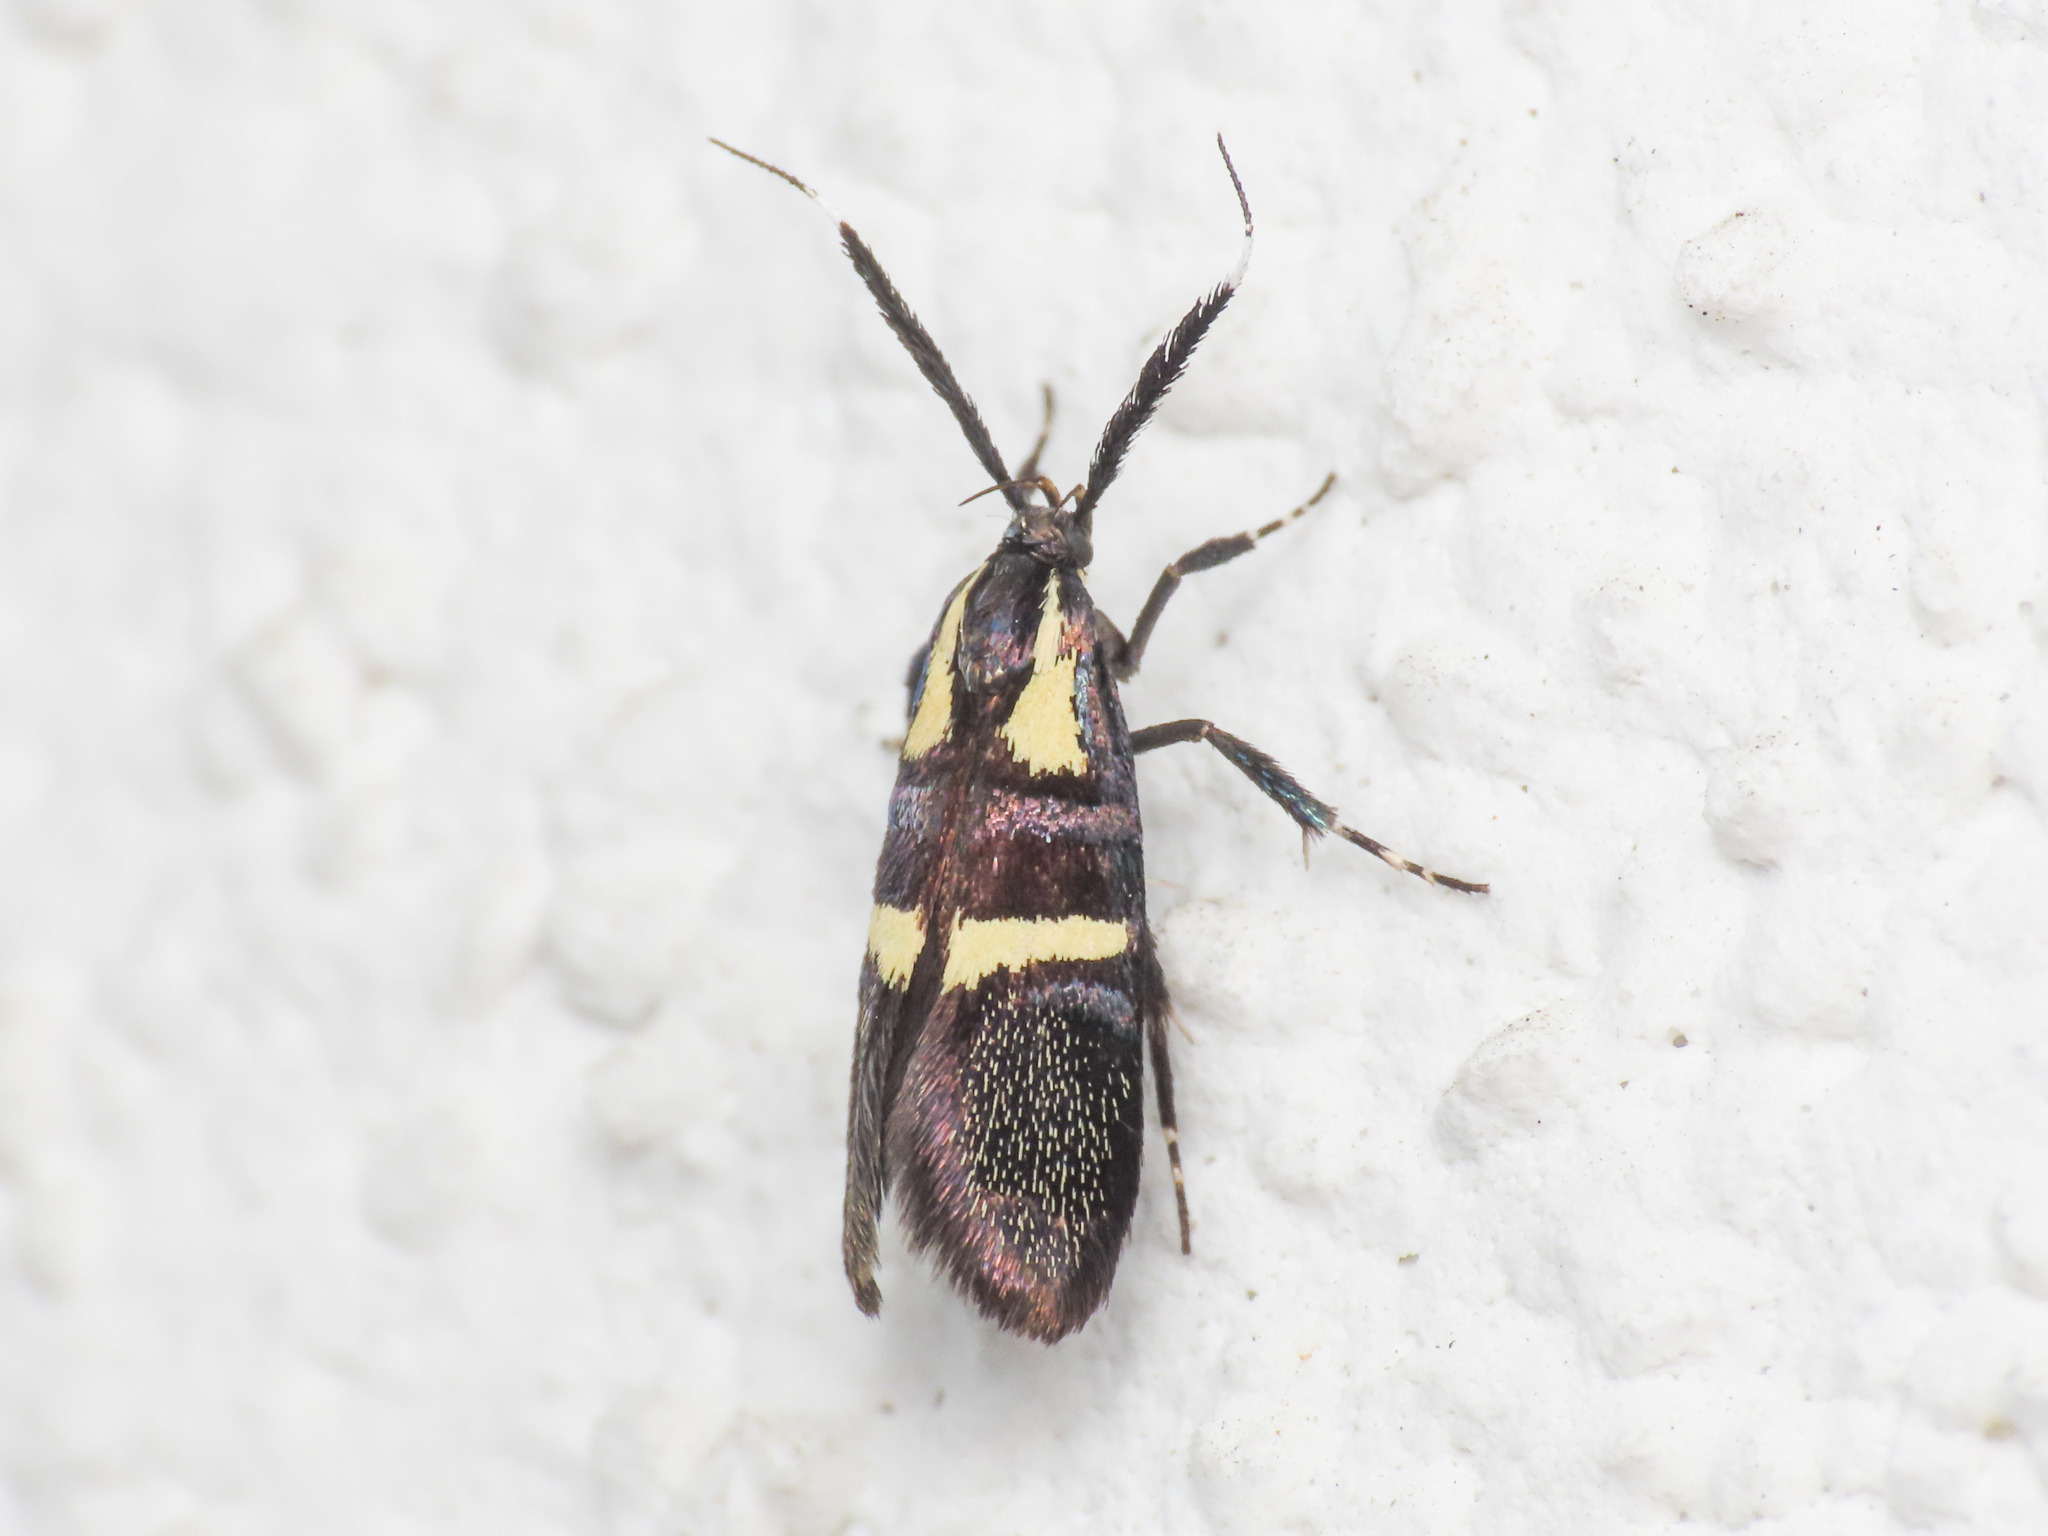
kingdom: Animalia
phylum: Arthropoda
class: Insecta
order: Lepidoptera
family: Oecophoridae
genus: Dafa
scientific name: Dafa oliviella
